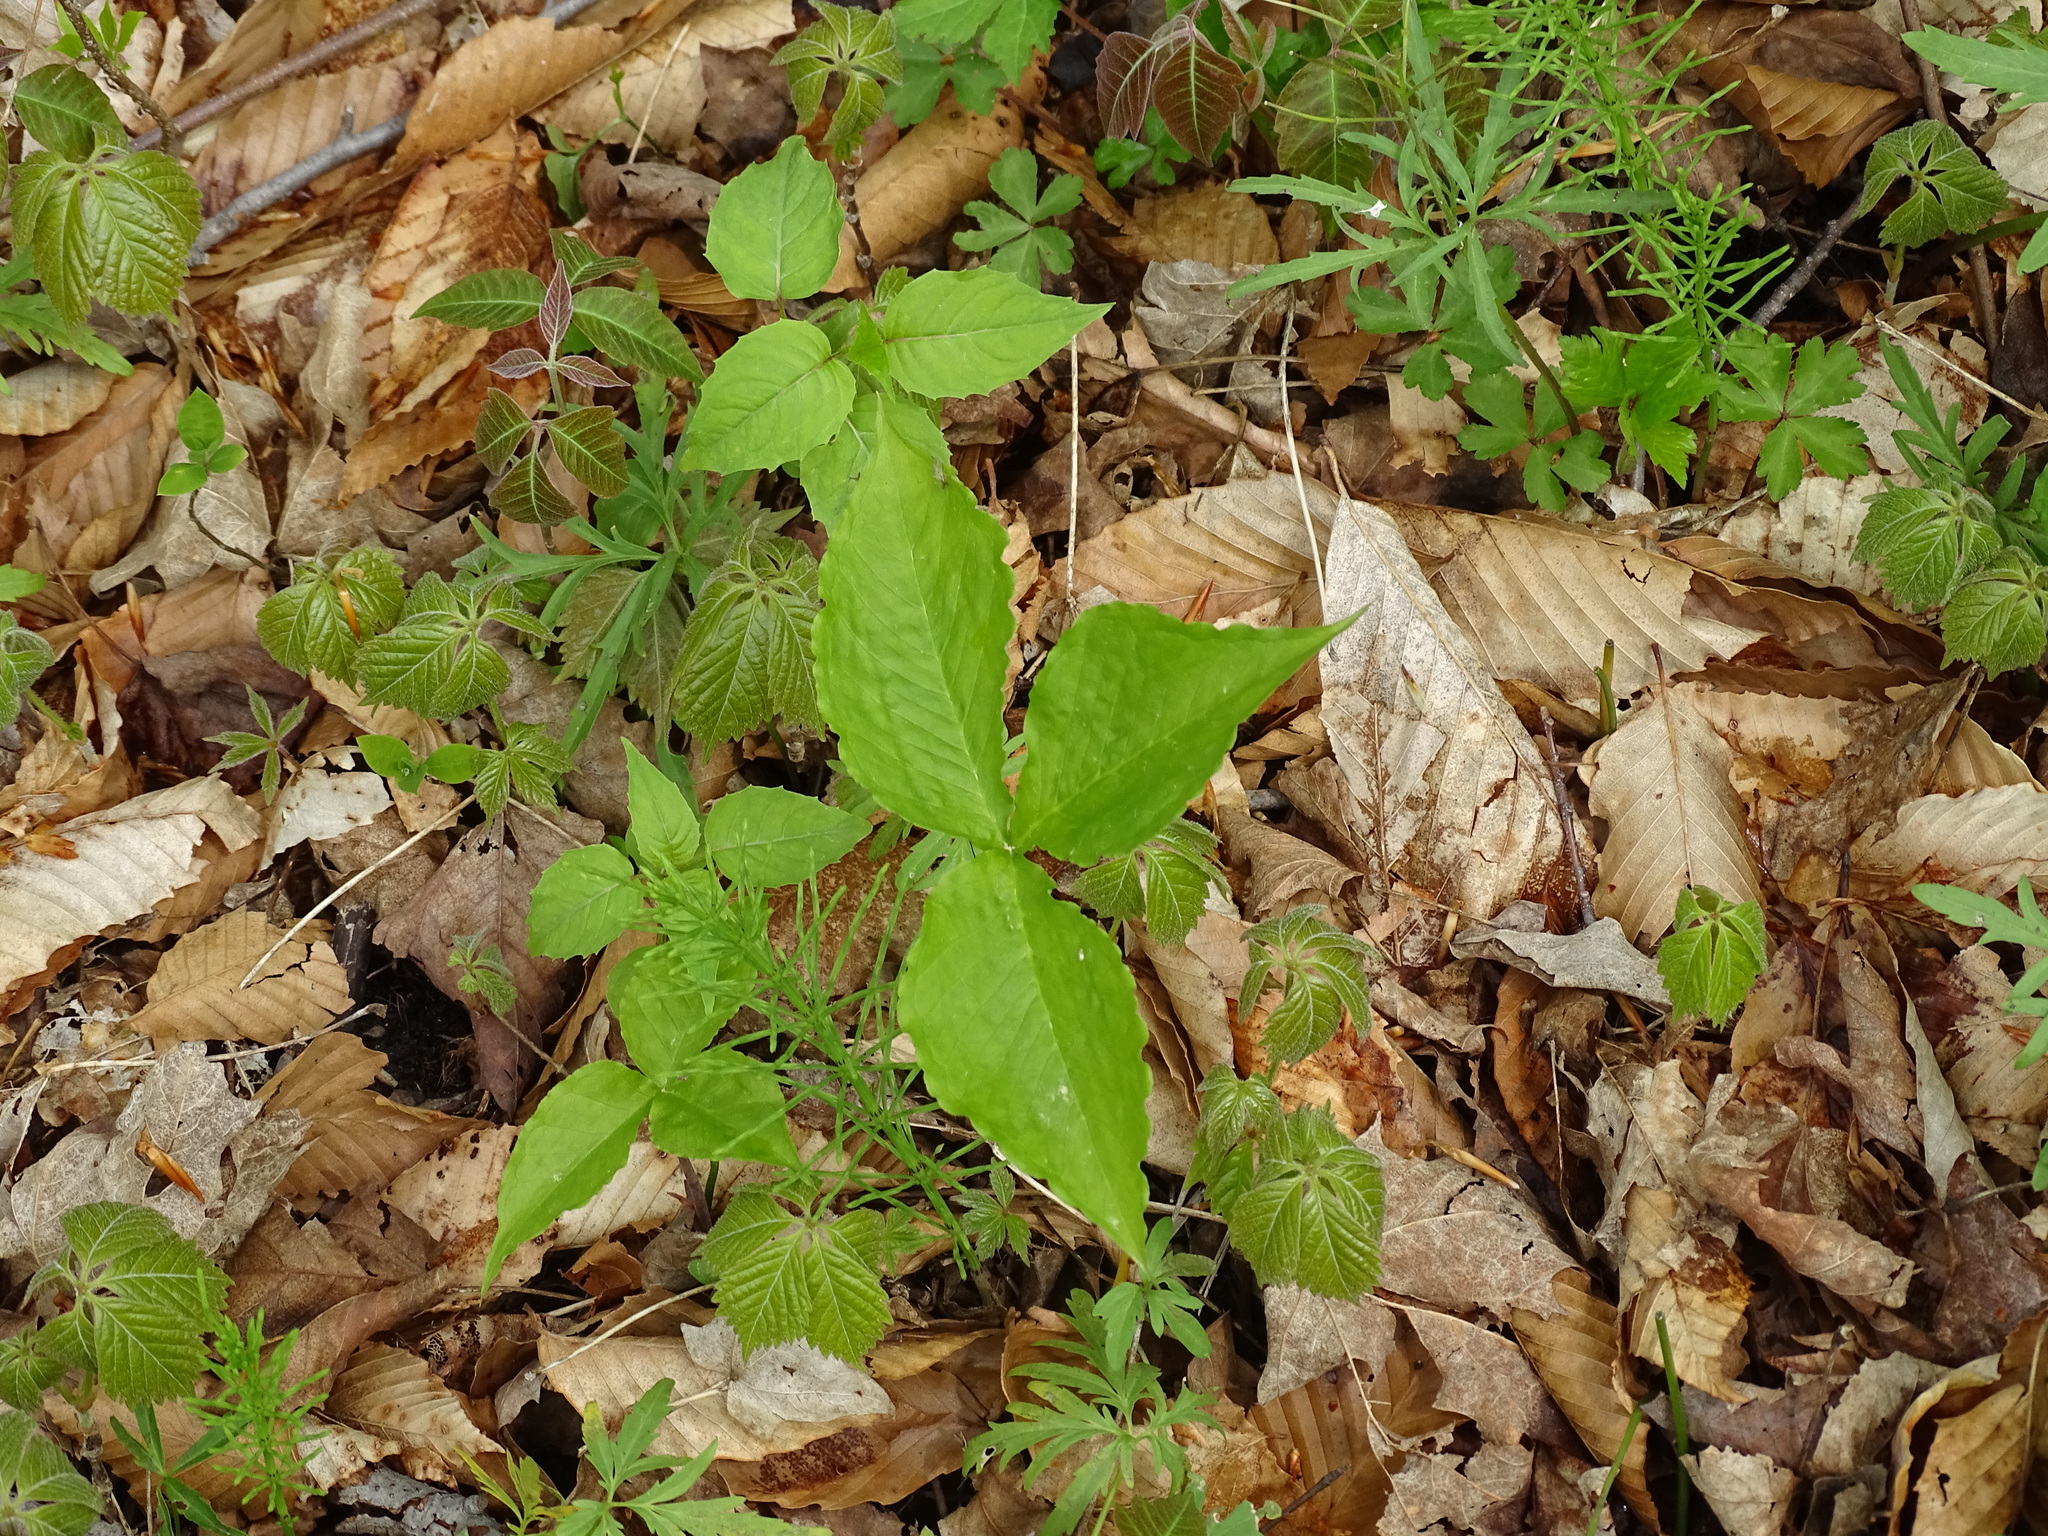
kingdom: Plantae
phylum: Tracheophyta
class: Liliopsida
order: Alismatales
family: Araceae
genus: Arisaema
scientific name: Arisaema triphyllum
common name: Jack-in-the-pulpit
